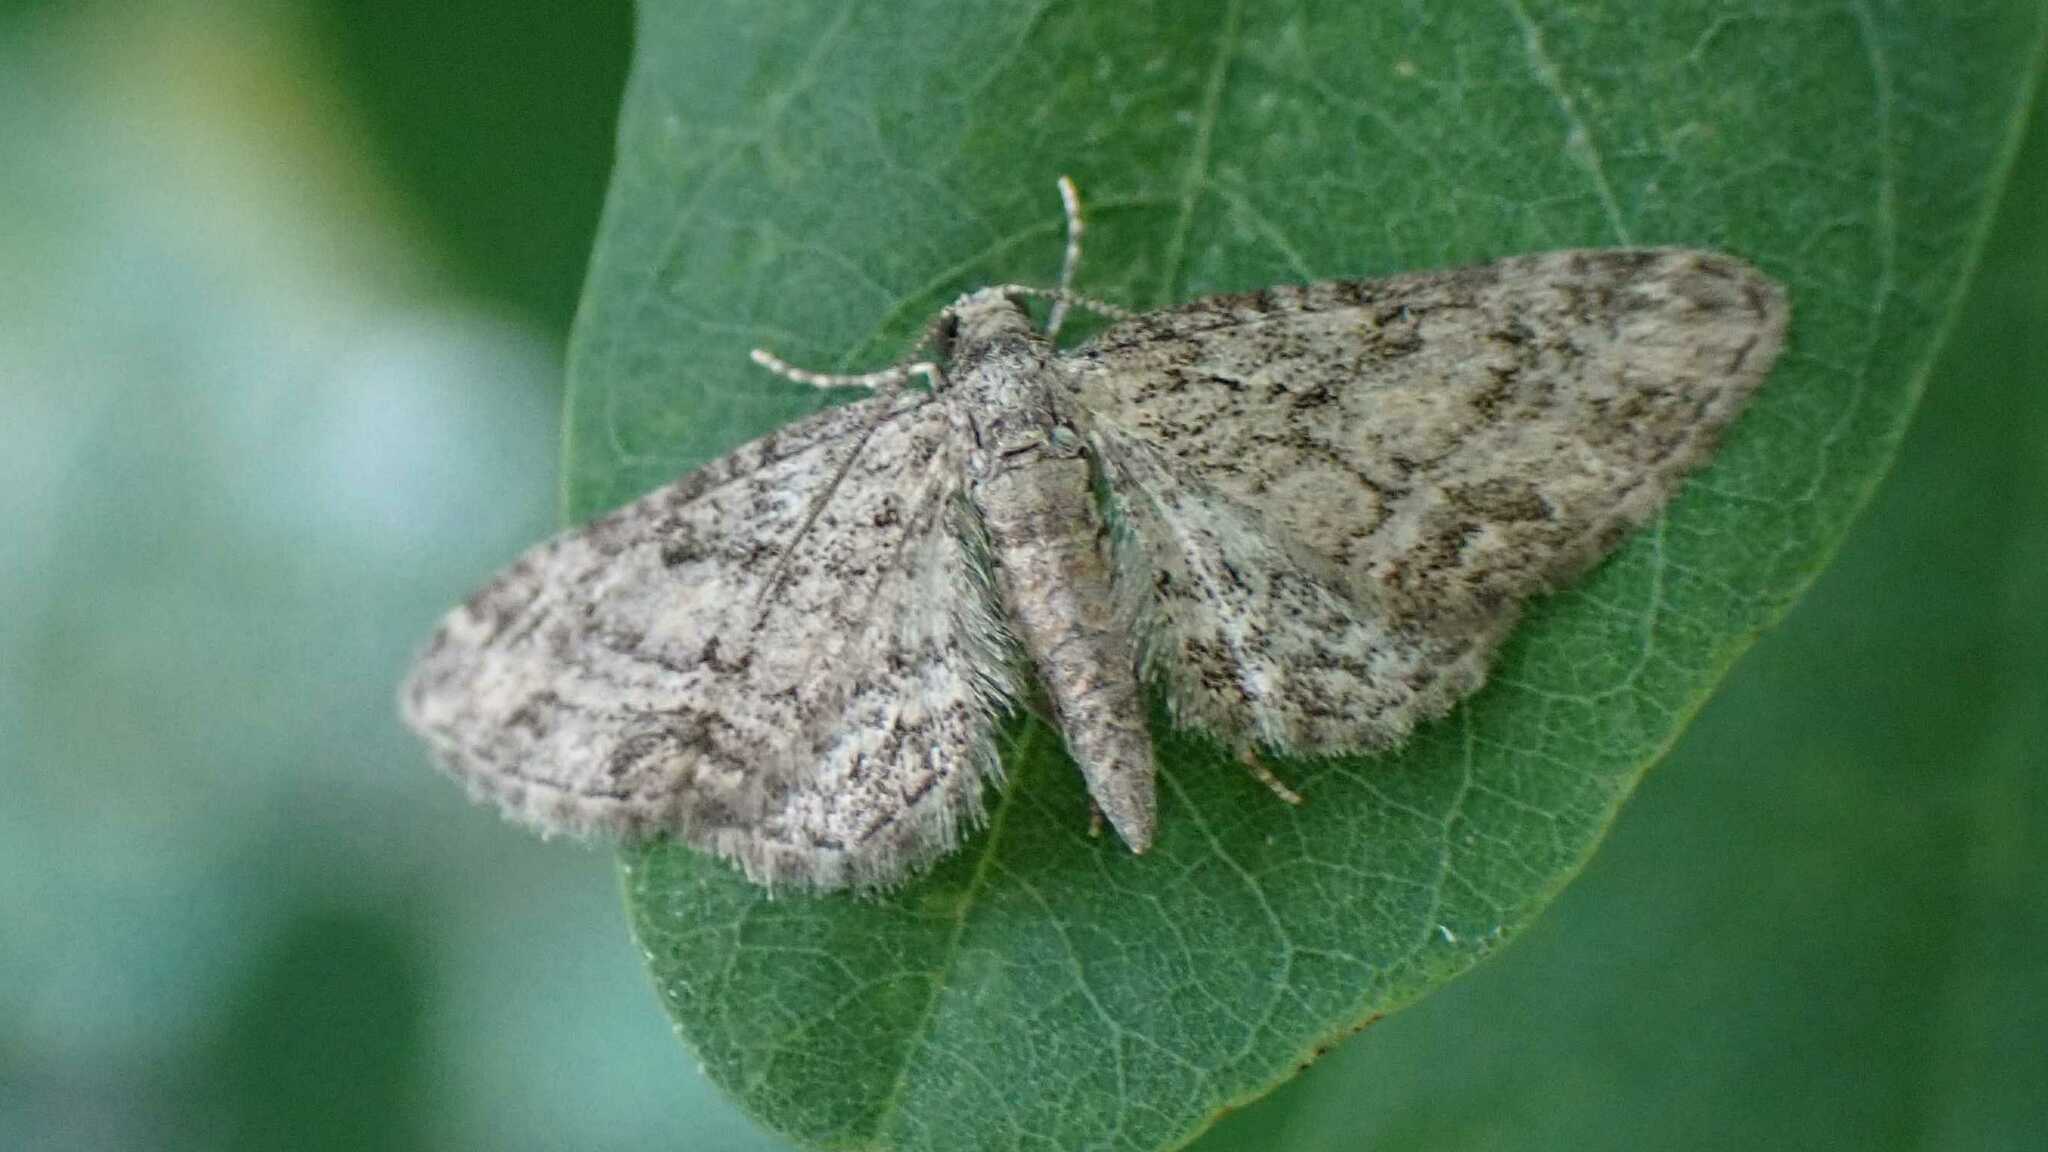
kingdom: Animalia
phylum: Arthropoda
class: Insecta
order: Lepidoptera
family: Geometridae
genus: Eupithecia
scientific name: Eupithecia inturbata
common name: Maple pug
